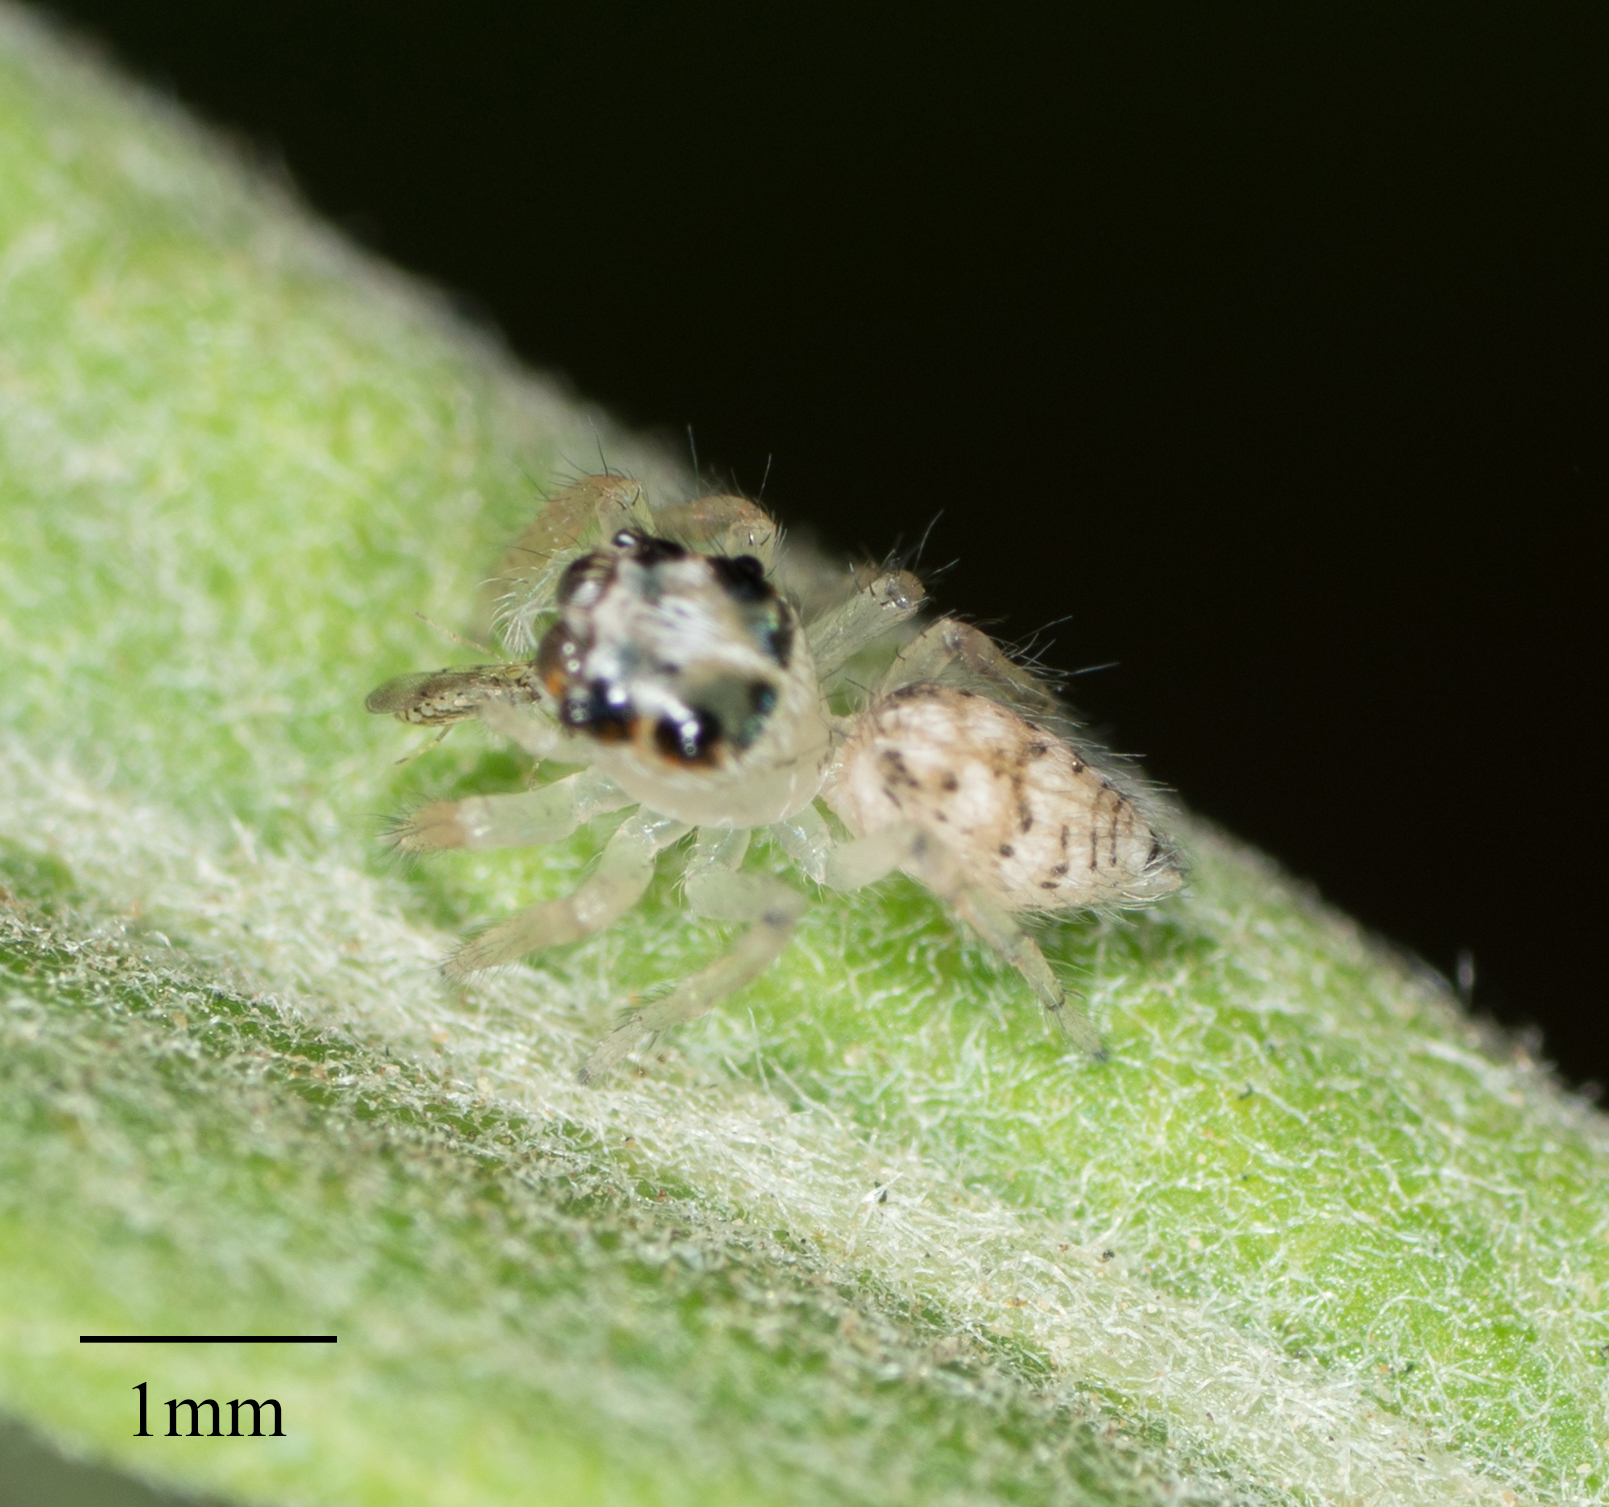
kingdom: Animalia
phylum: Arthropoda
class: Arachnida
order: Araneae
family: Salticidae
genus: Colonus
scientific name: Colonus hesperus
